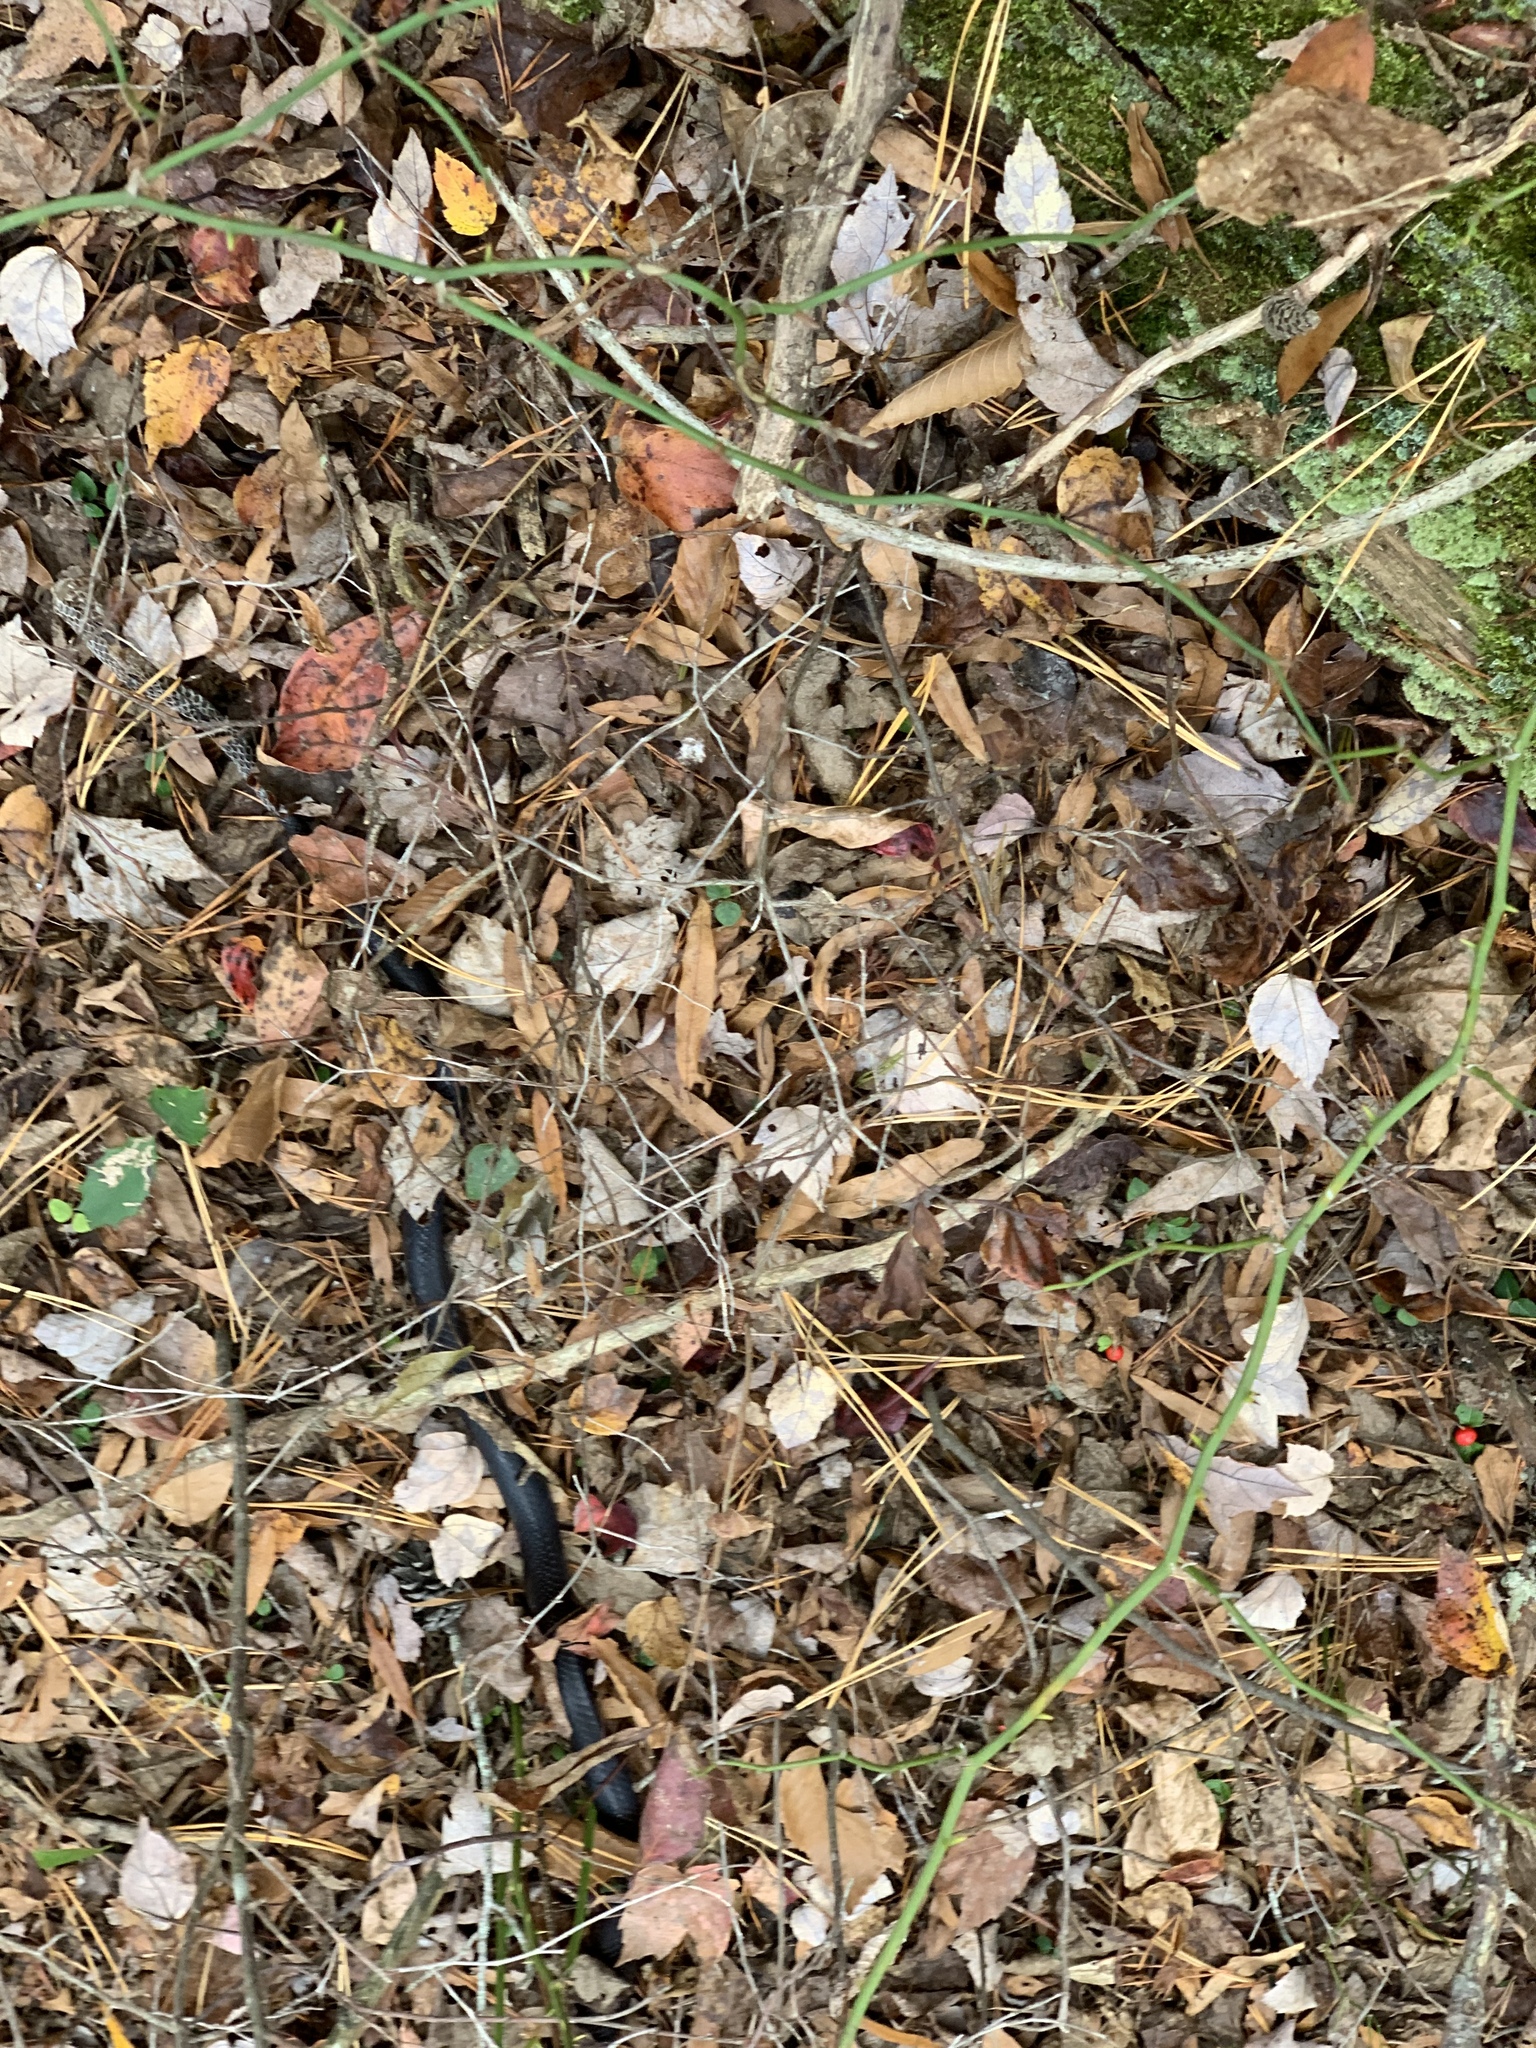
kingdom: Animalia
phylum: Chordata
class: Squamata
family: Colubridae
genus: Coluber
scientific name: Coluber constrictor
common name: Eastern racer
